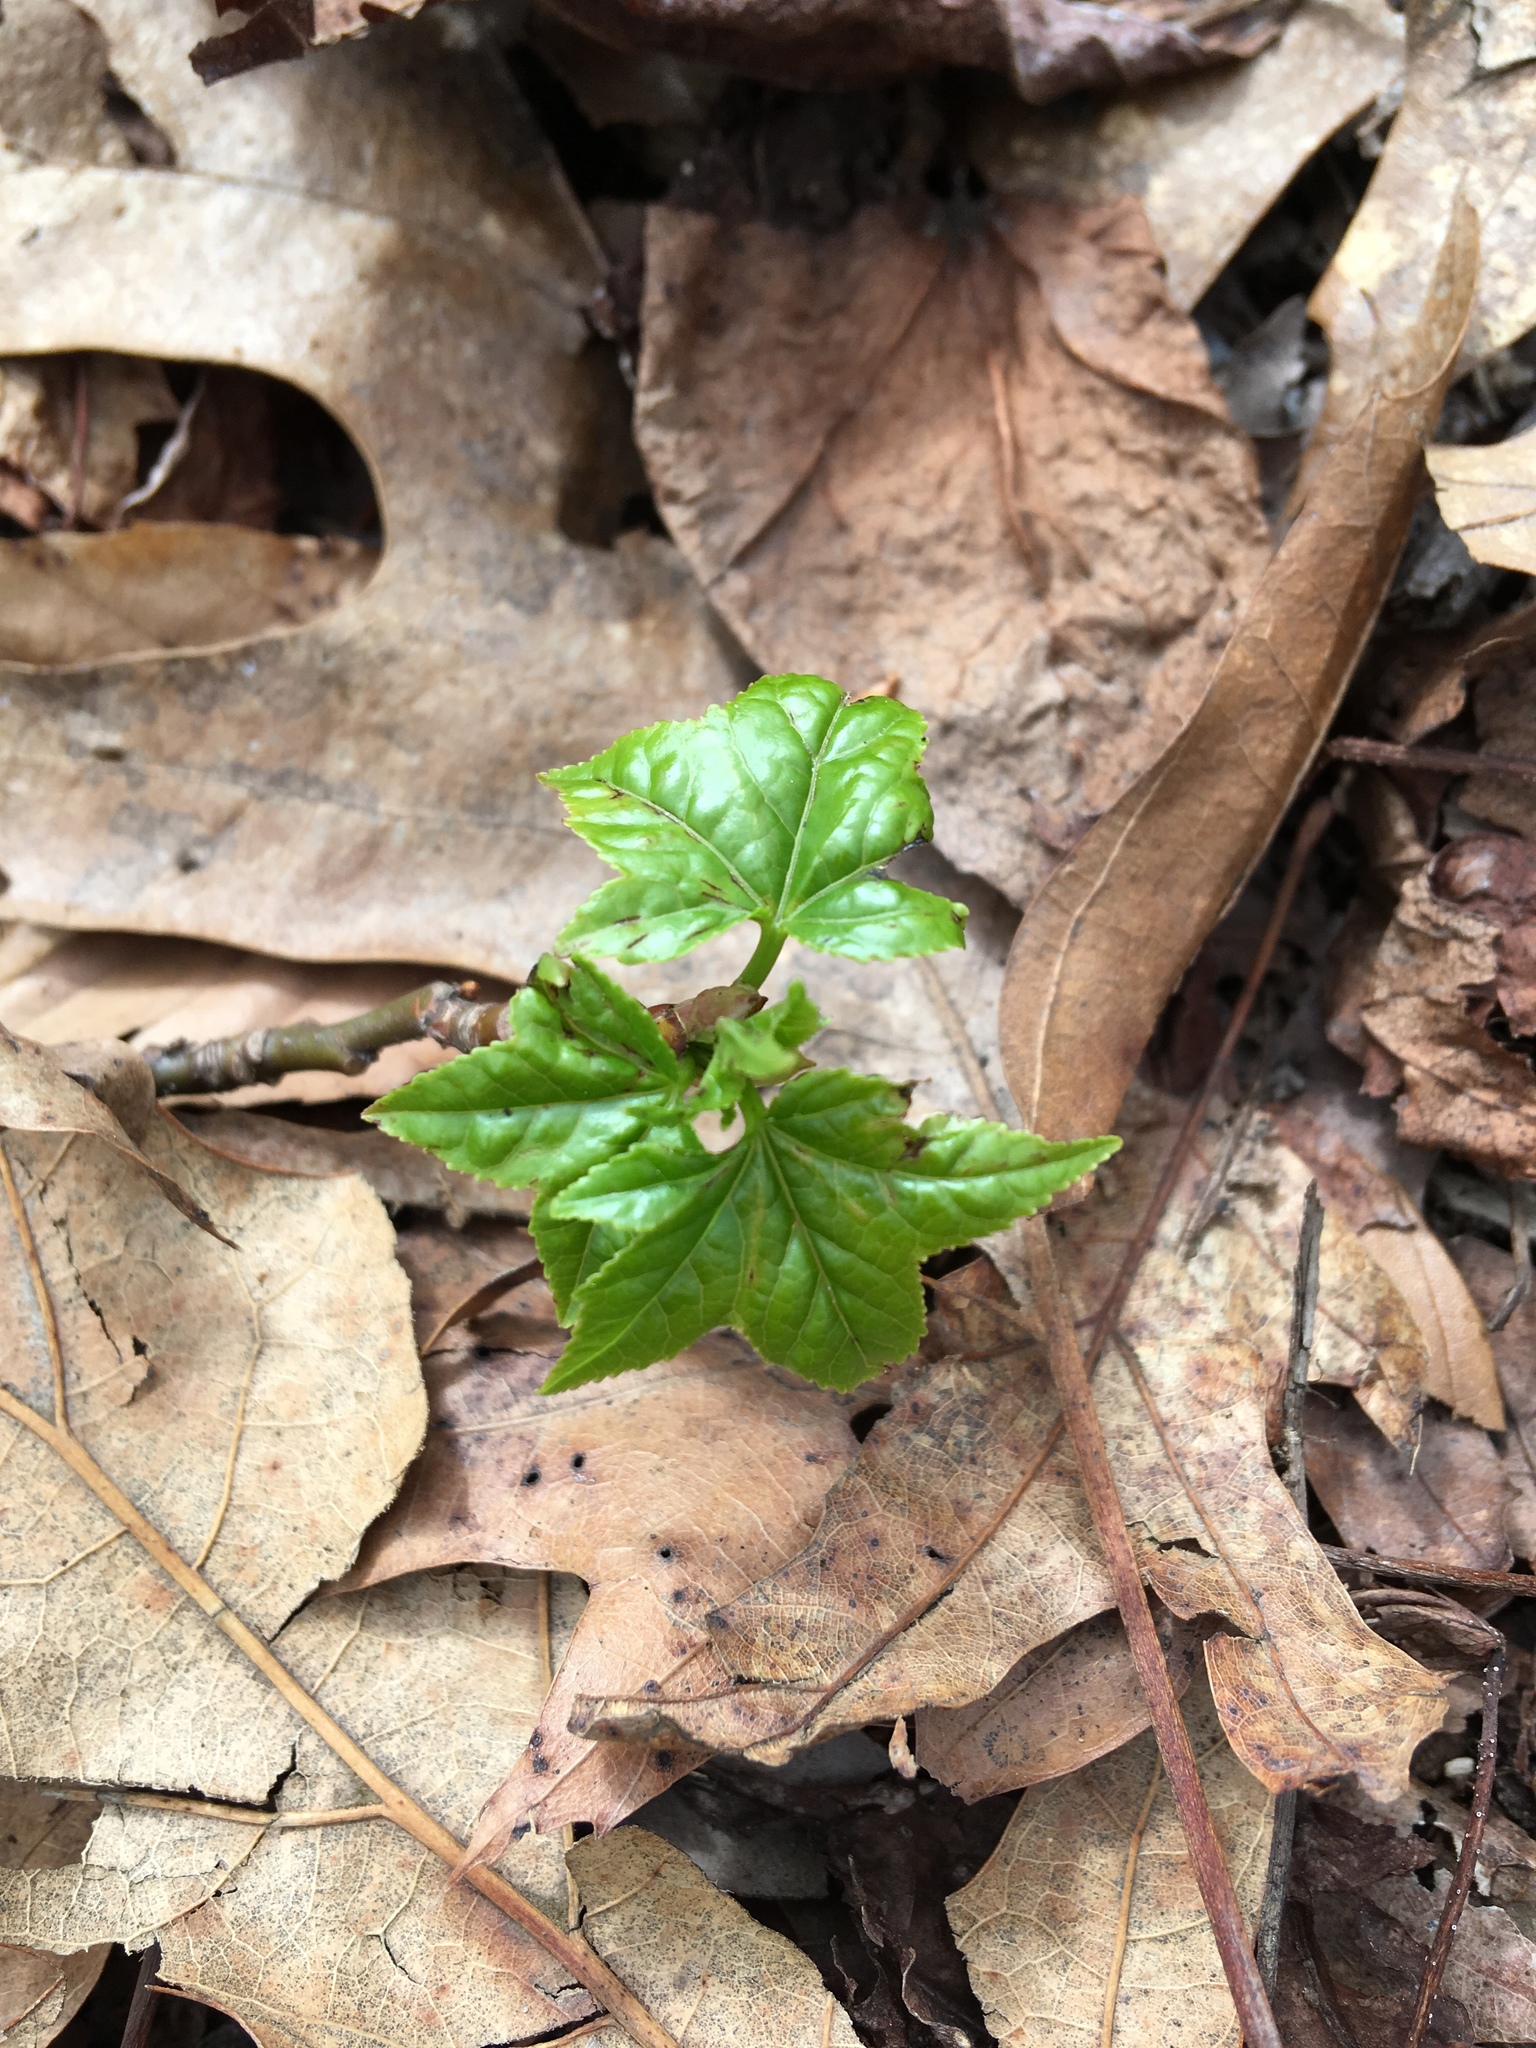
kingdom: Plantae
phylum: Tracheophyta
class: Magnoliopsida
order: Saxifragales
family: Altingiaceae
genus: Liquidambar
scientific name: Liquidambar styraciflua
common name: Sweet gum
